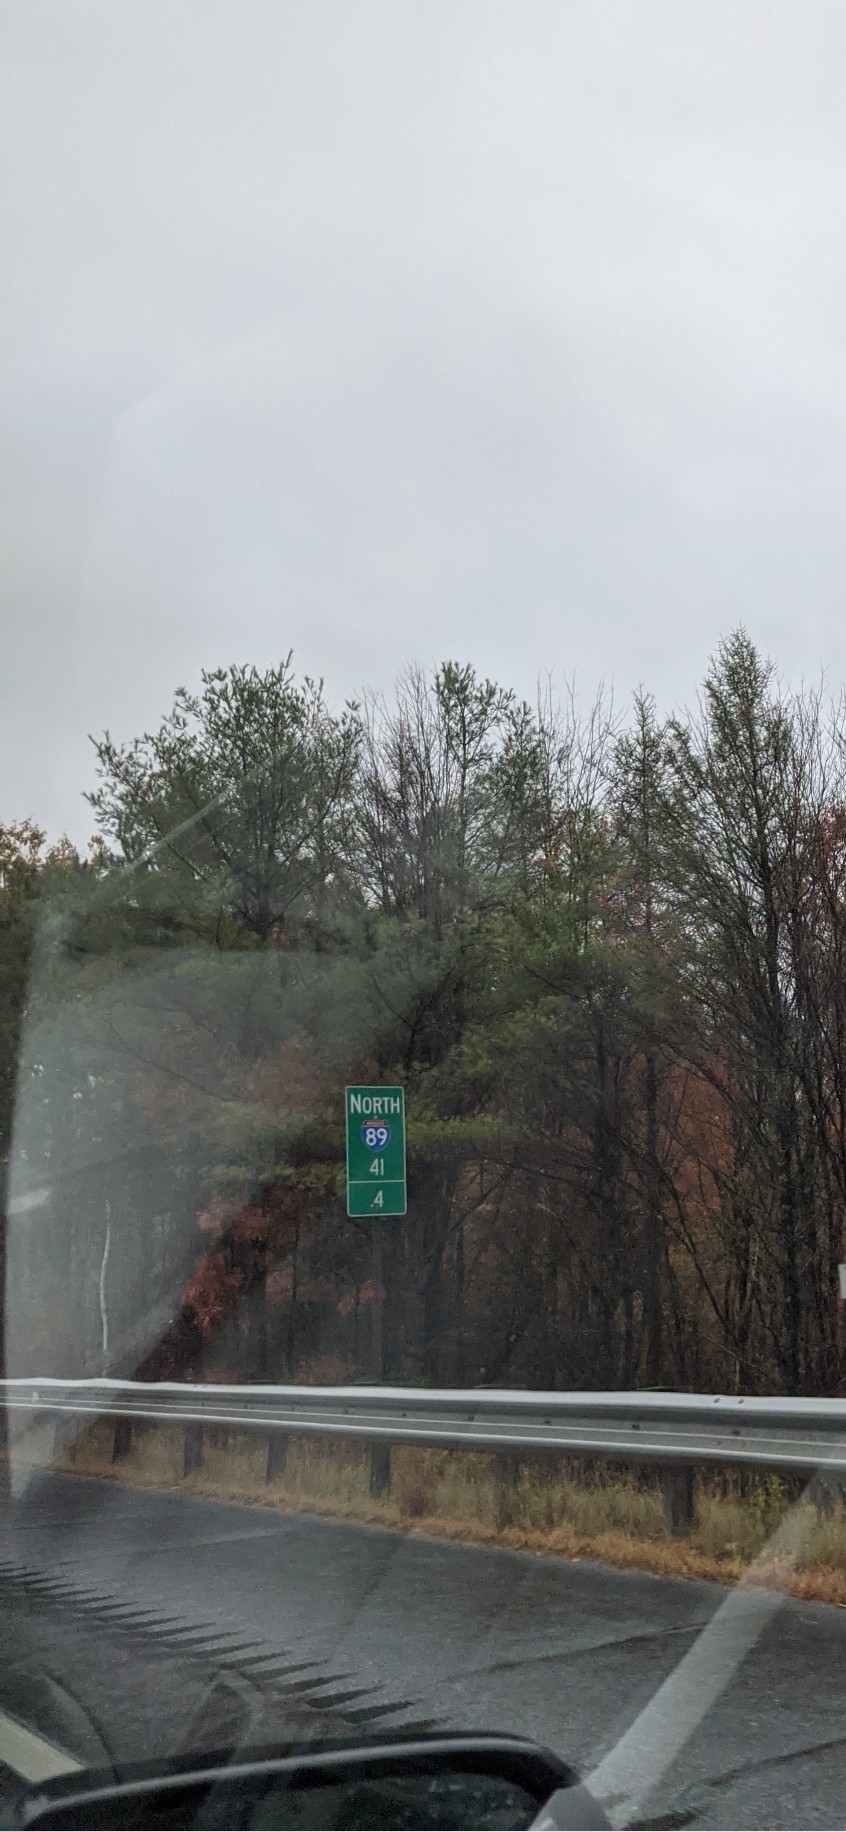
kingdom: Plantae
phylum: Tracheophyta
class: Pinopsida
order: Pinales
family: Pinaceae
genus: Pinus
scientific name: Pinus strobus
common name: Weymouth pine
